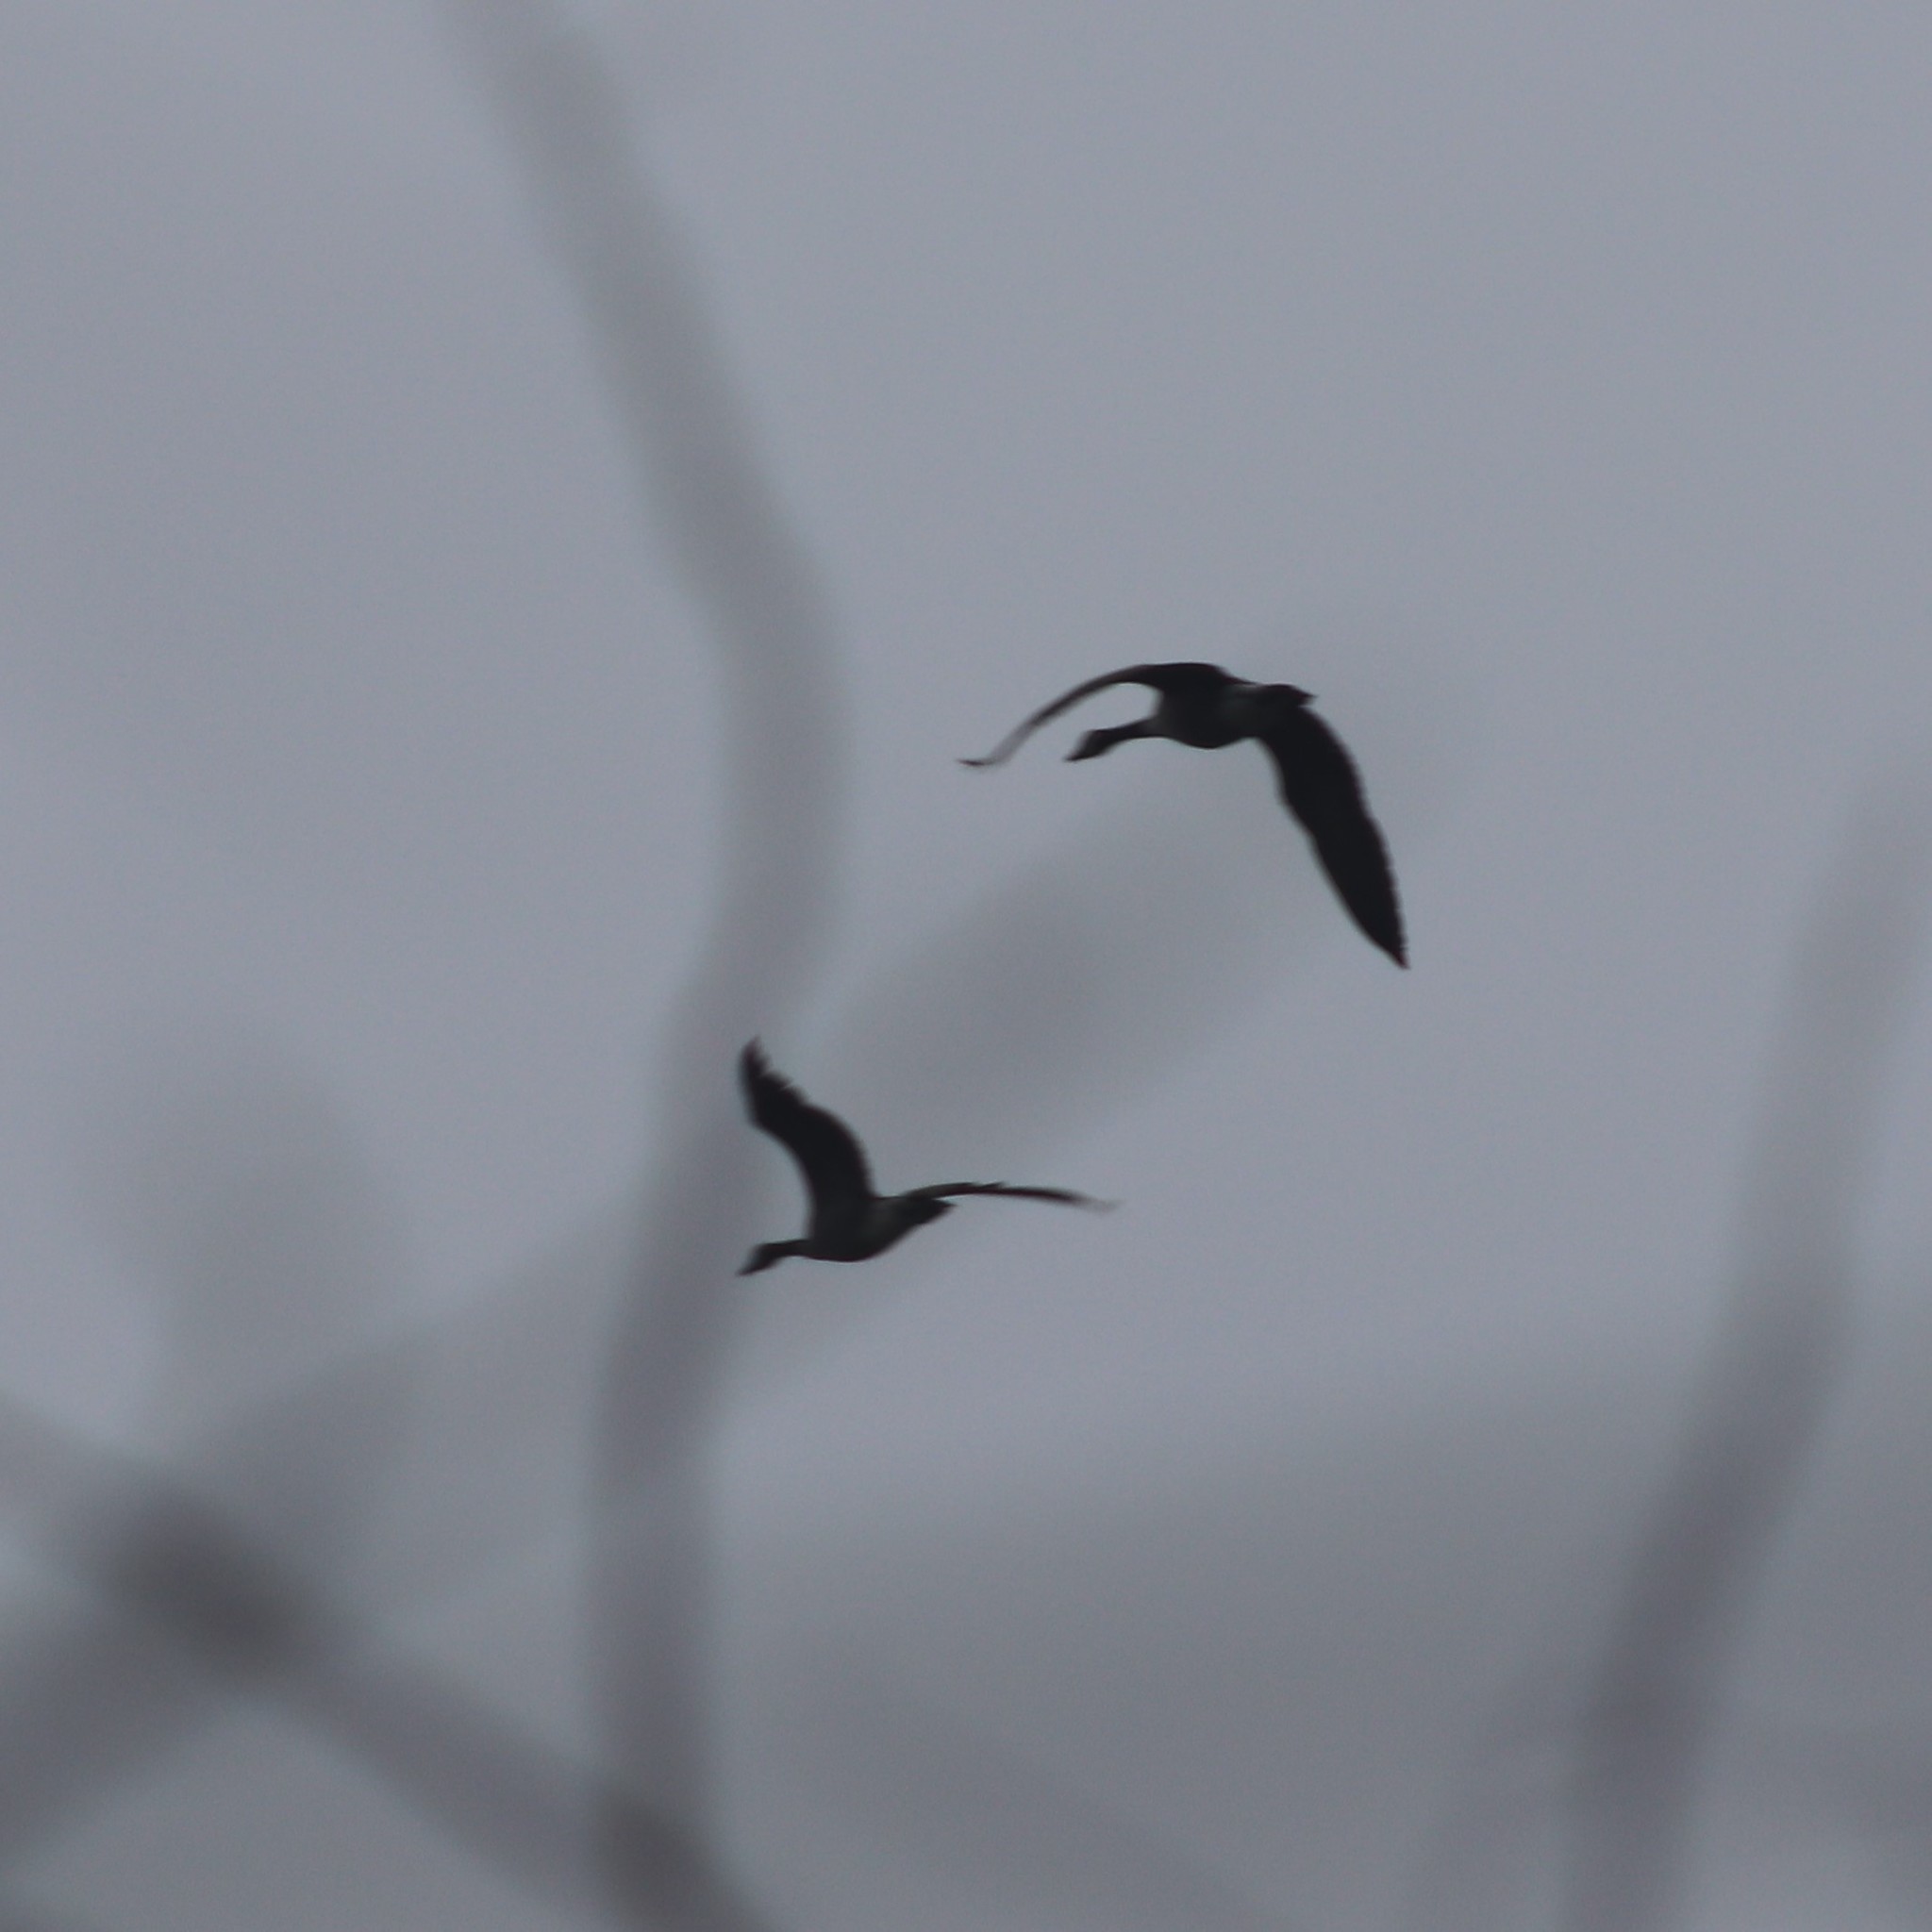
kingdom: Animalia
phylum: Chordata
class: Aves
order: Anseriformes
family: Anatidae
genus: Branta
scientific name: Branta canadensis
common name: Canada goose
